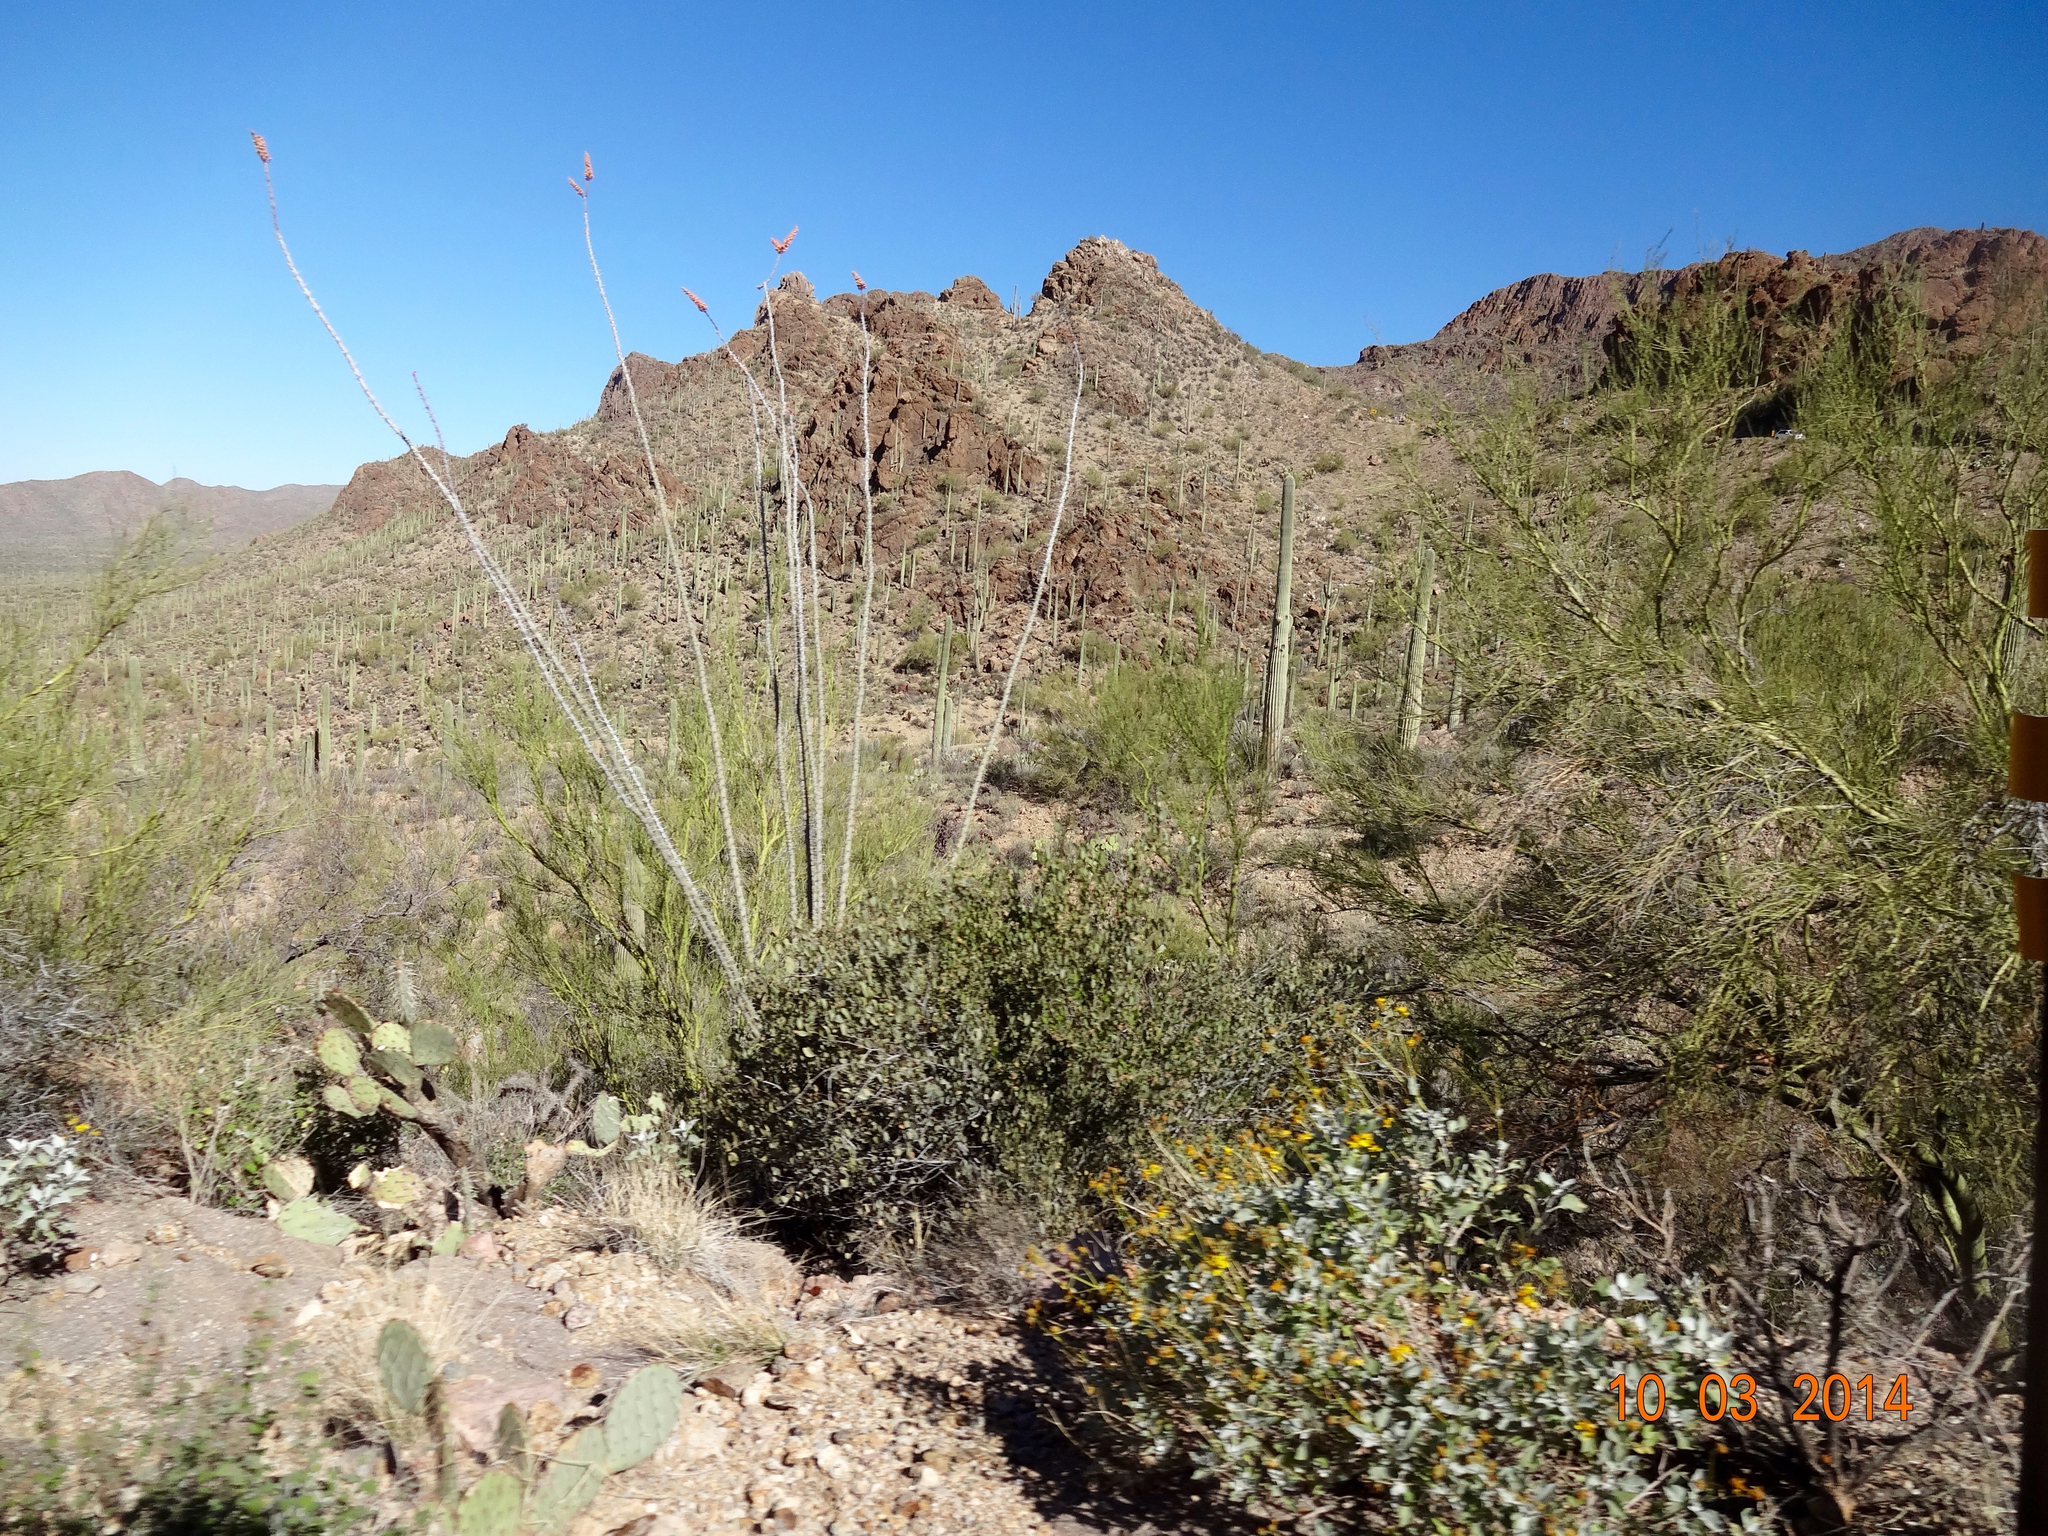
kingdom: Plantae
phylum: Tracheophyta
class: Magnoliopsida
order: Ericales
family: Fouquieriaceae
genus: Fouquieria
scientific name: Fouquieria splendens
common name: Vine-cactus
